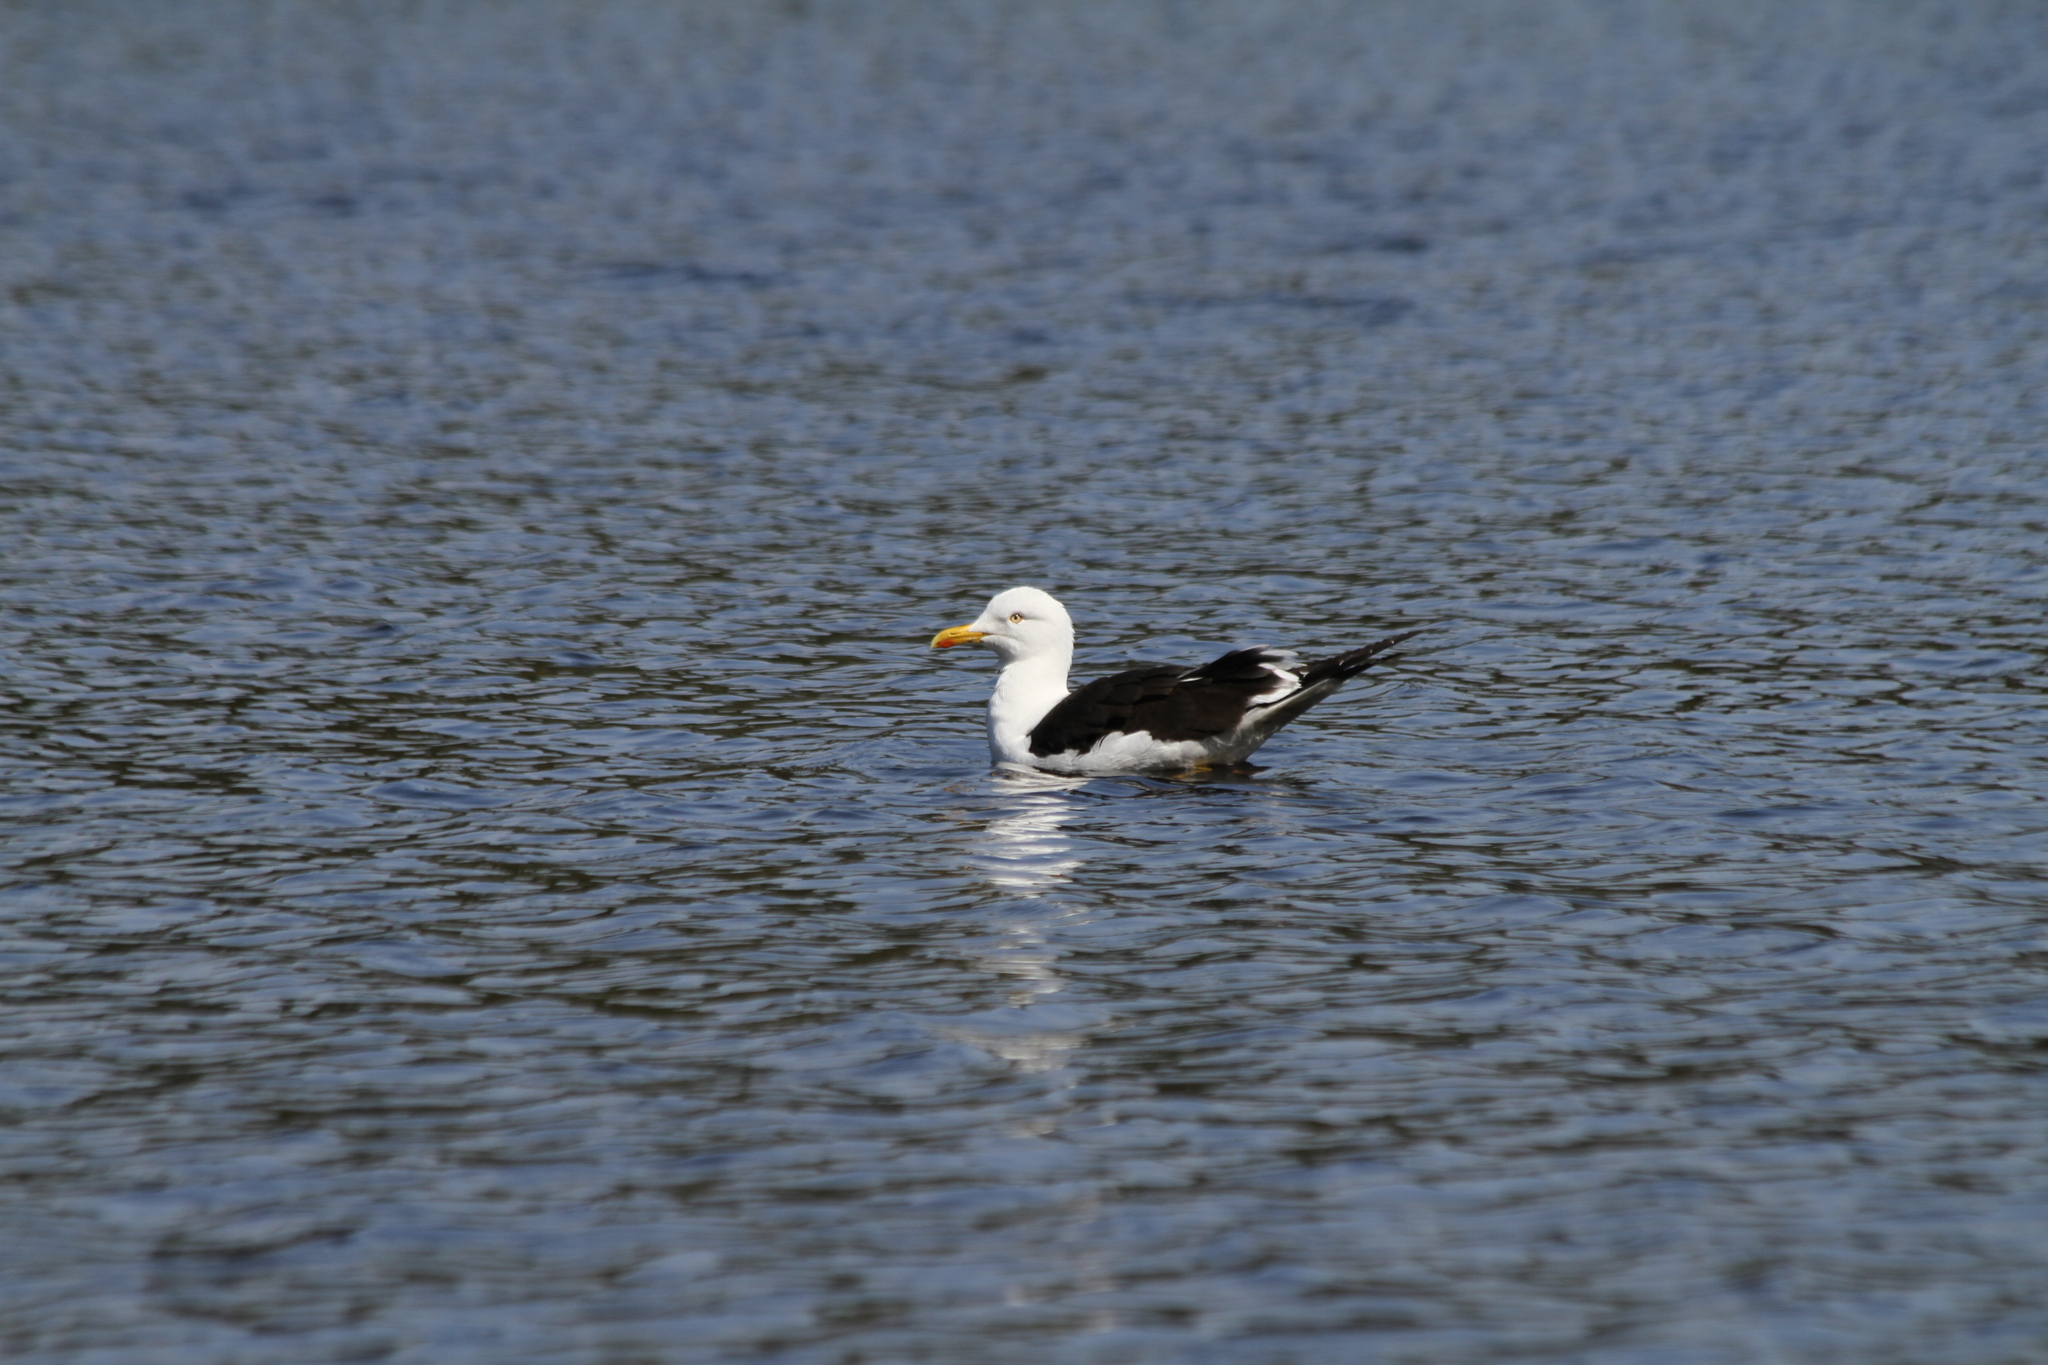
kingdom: Animalia
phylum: Chordata
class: Aves
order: Charadriiformes
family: Laridae
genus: Larus
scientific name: Larus fuscus
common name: Lesser black-backed gull
